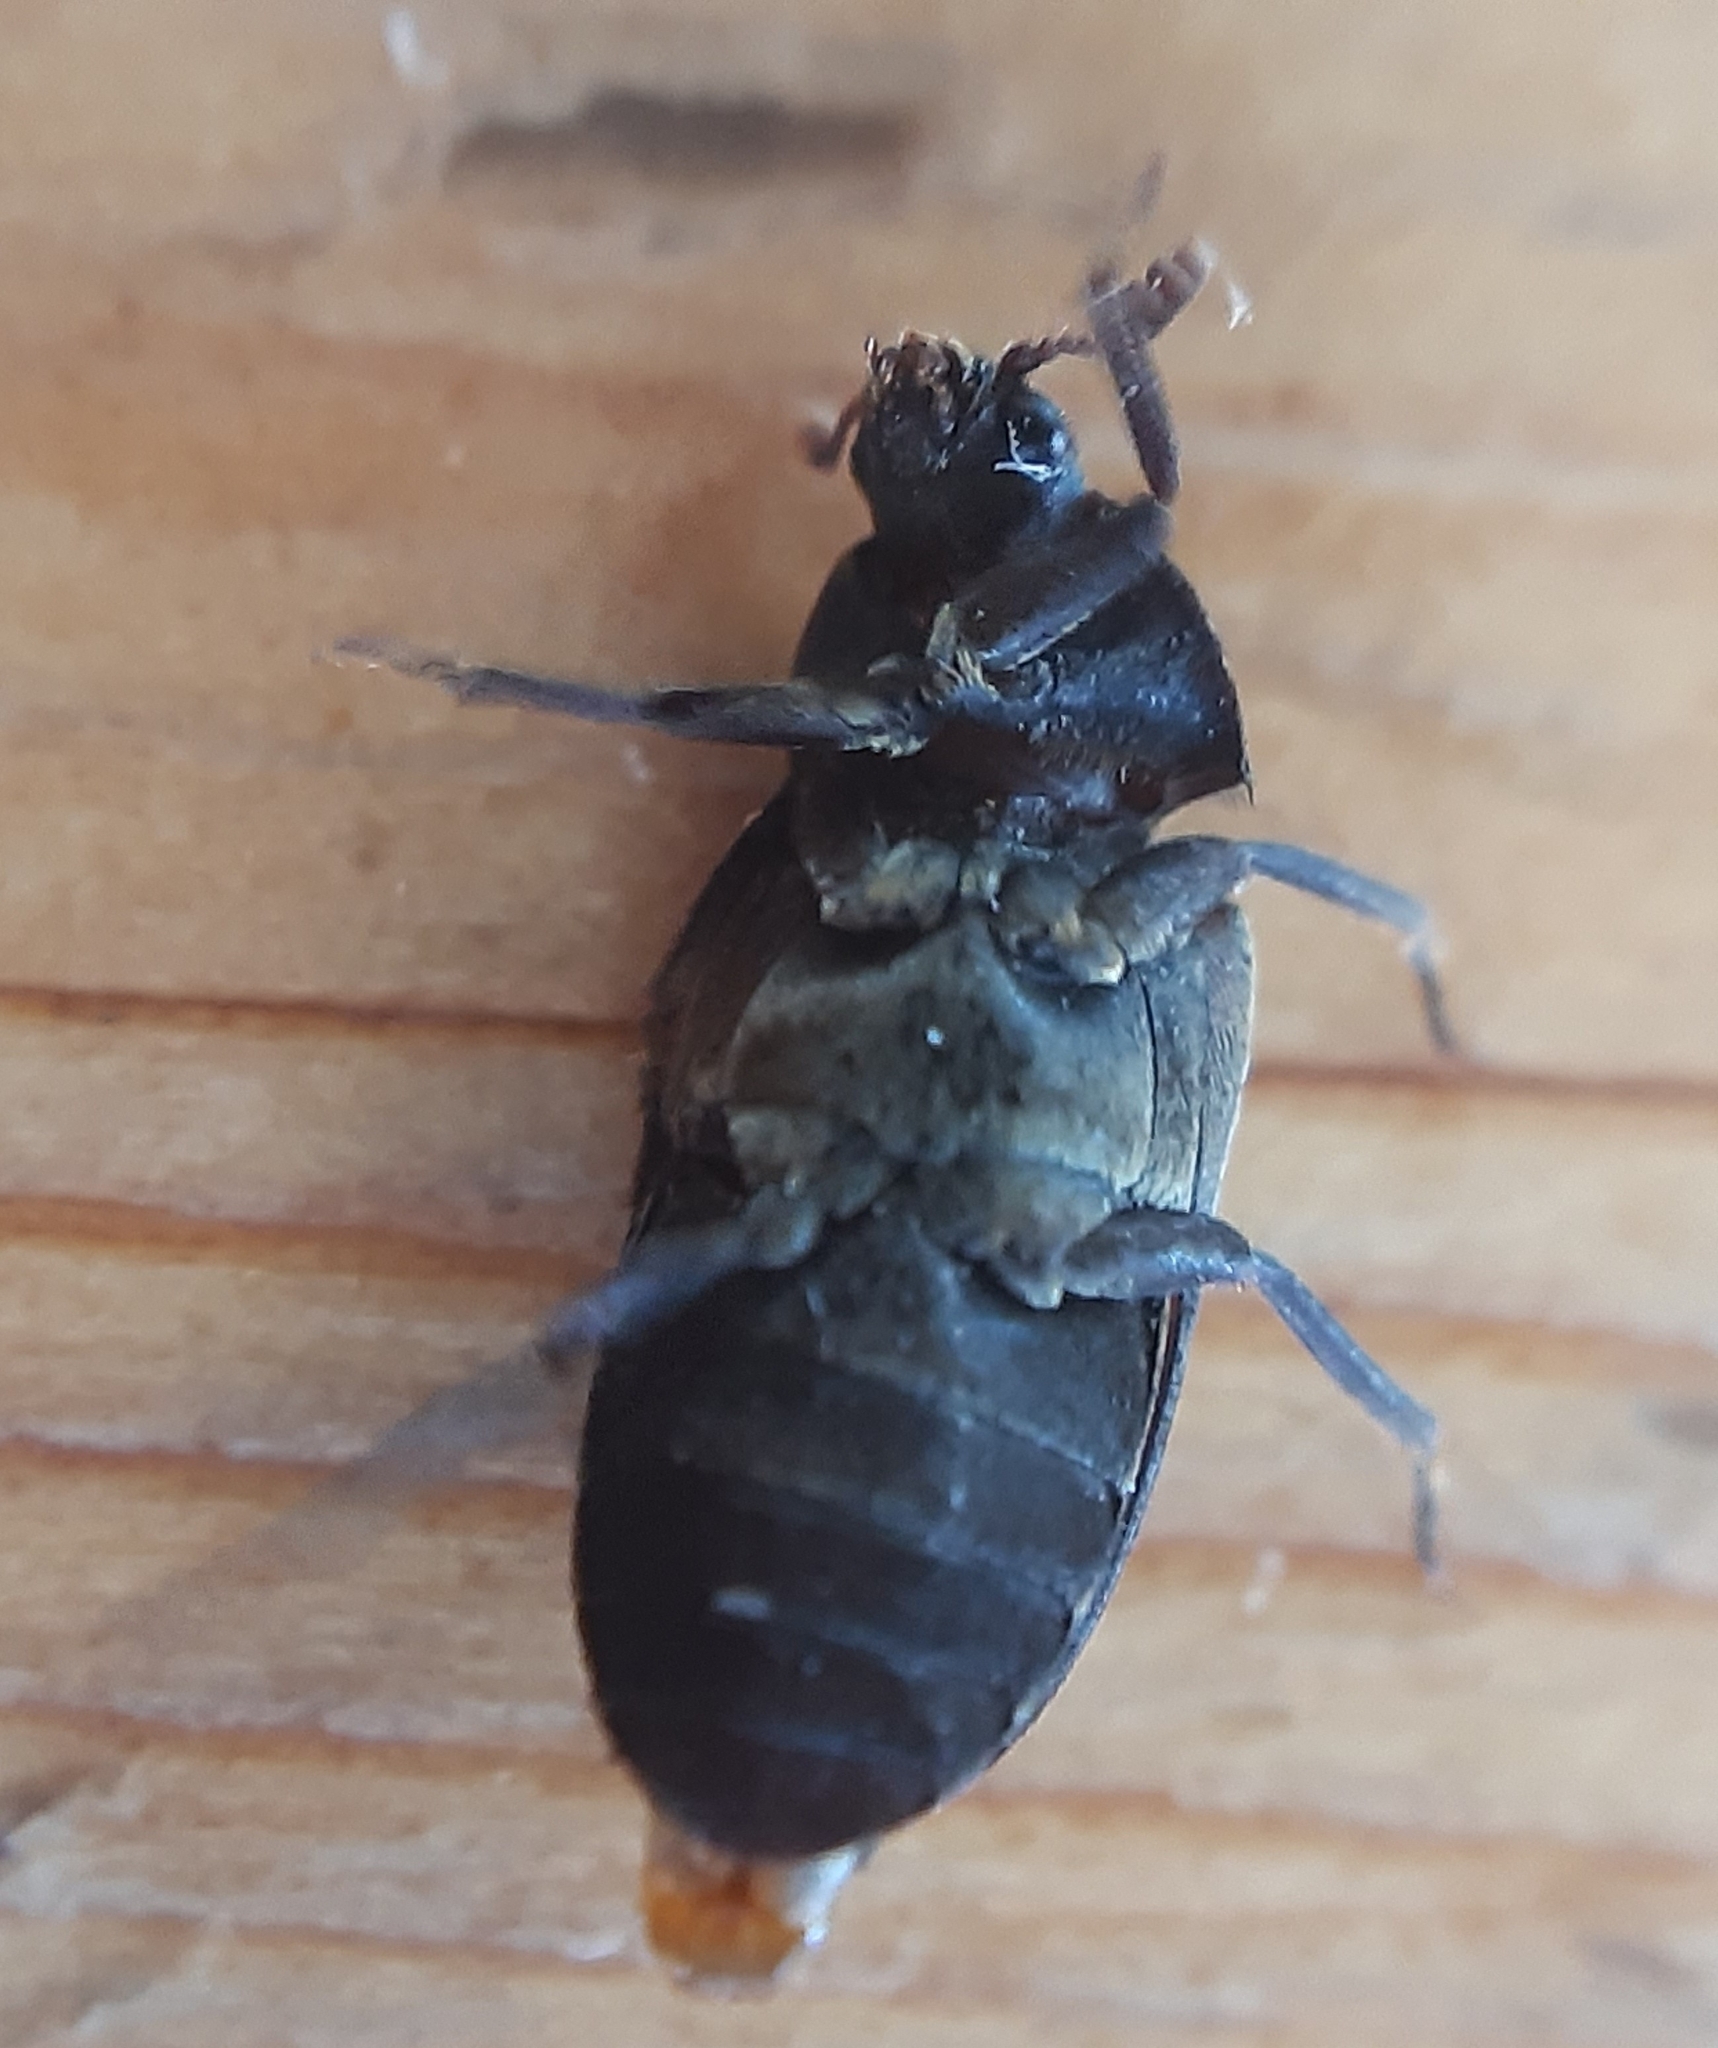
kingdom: Animalia
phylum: Arthropoda
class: Insecta
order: Coleoptera
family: Dermestidae
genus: Dermestes
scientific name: Dermestes lardarius
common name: Larder beetle
